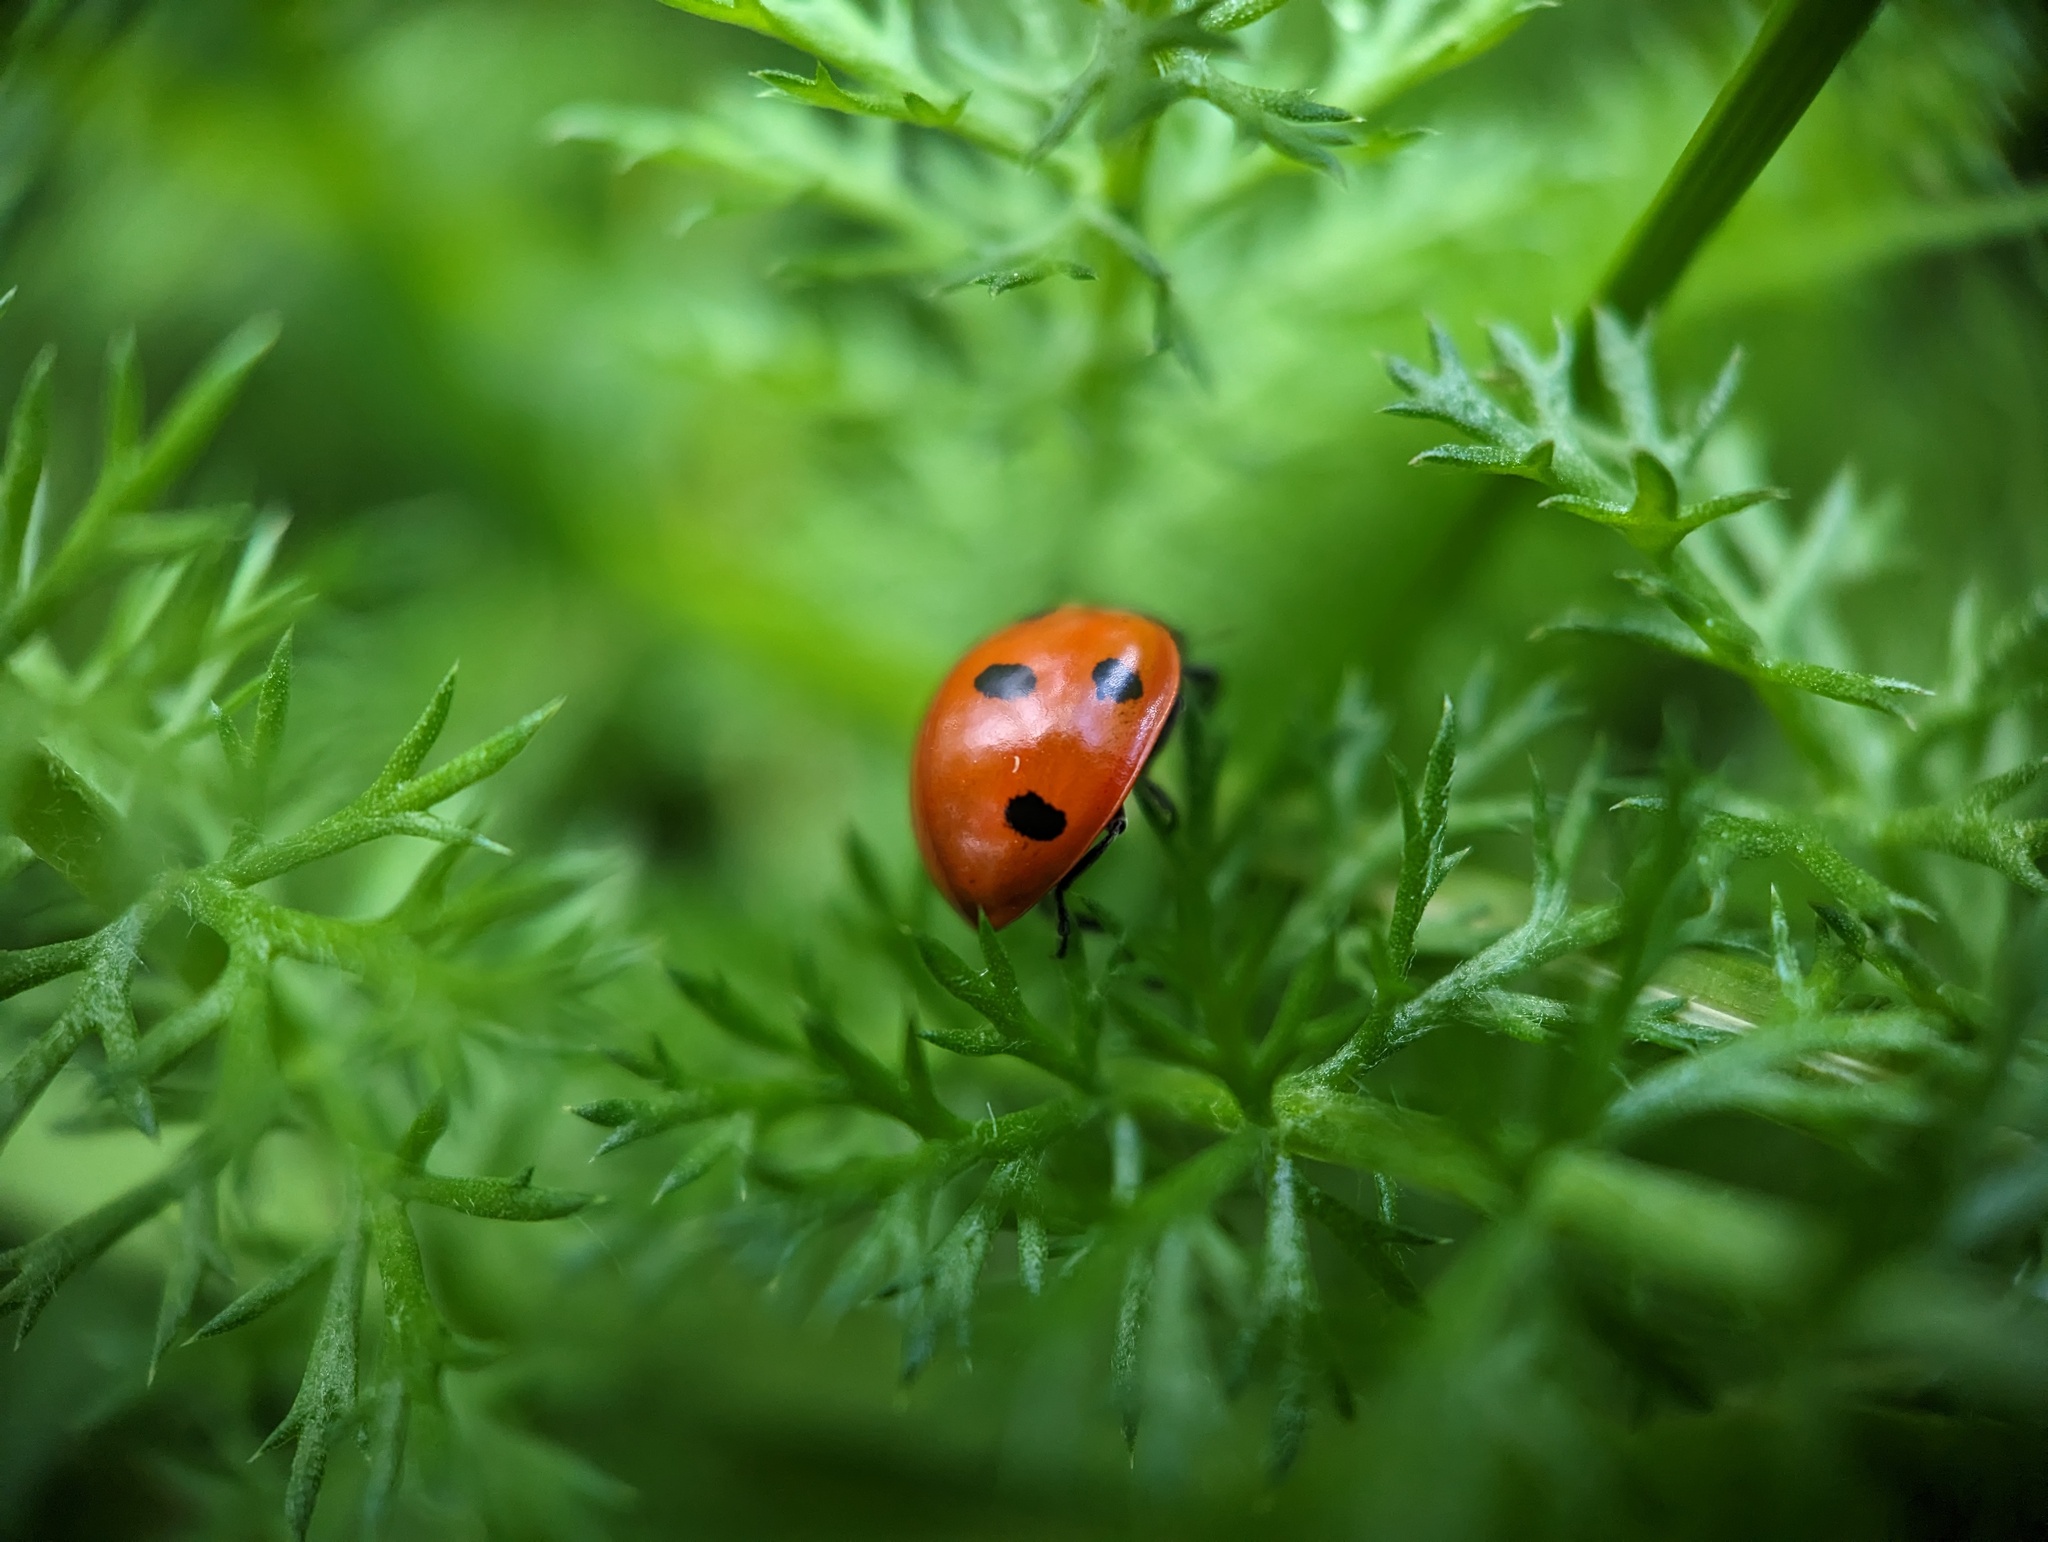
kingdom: Animalia
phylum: Arthropoda
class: Insecta
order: Coleoptera
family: Coccinellidae
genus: Coccinella
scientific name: Coccinella septempunctata
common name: Sevenspotted lady beetle
